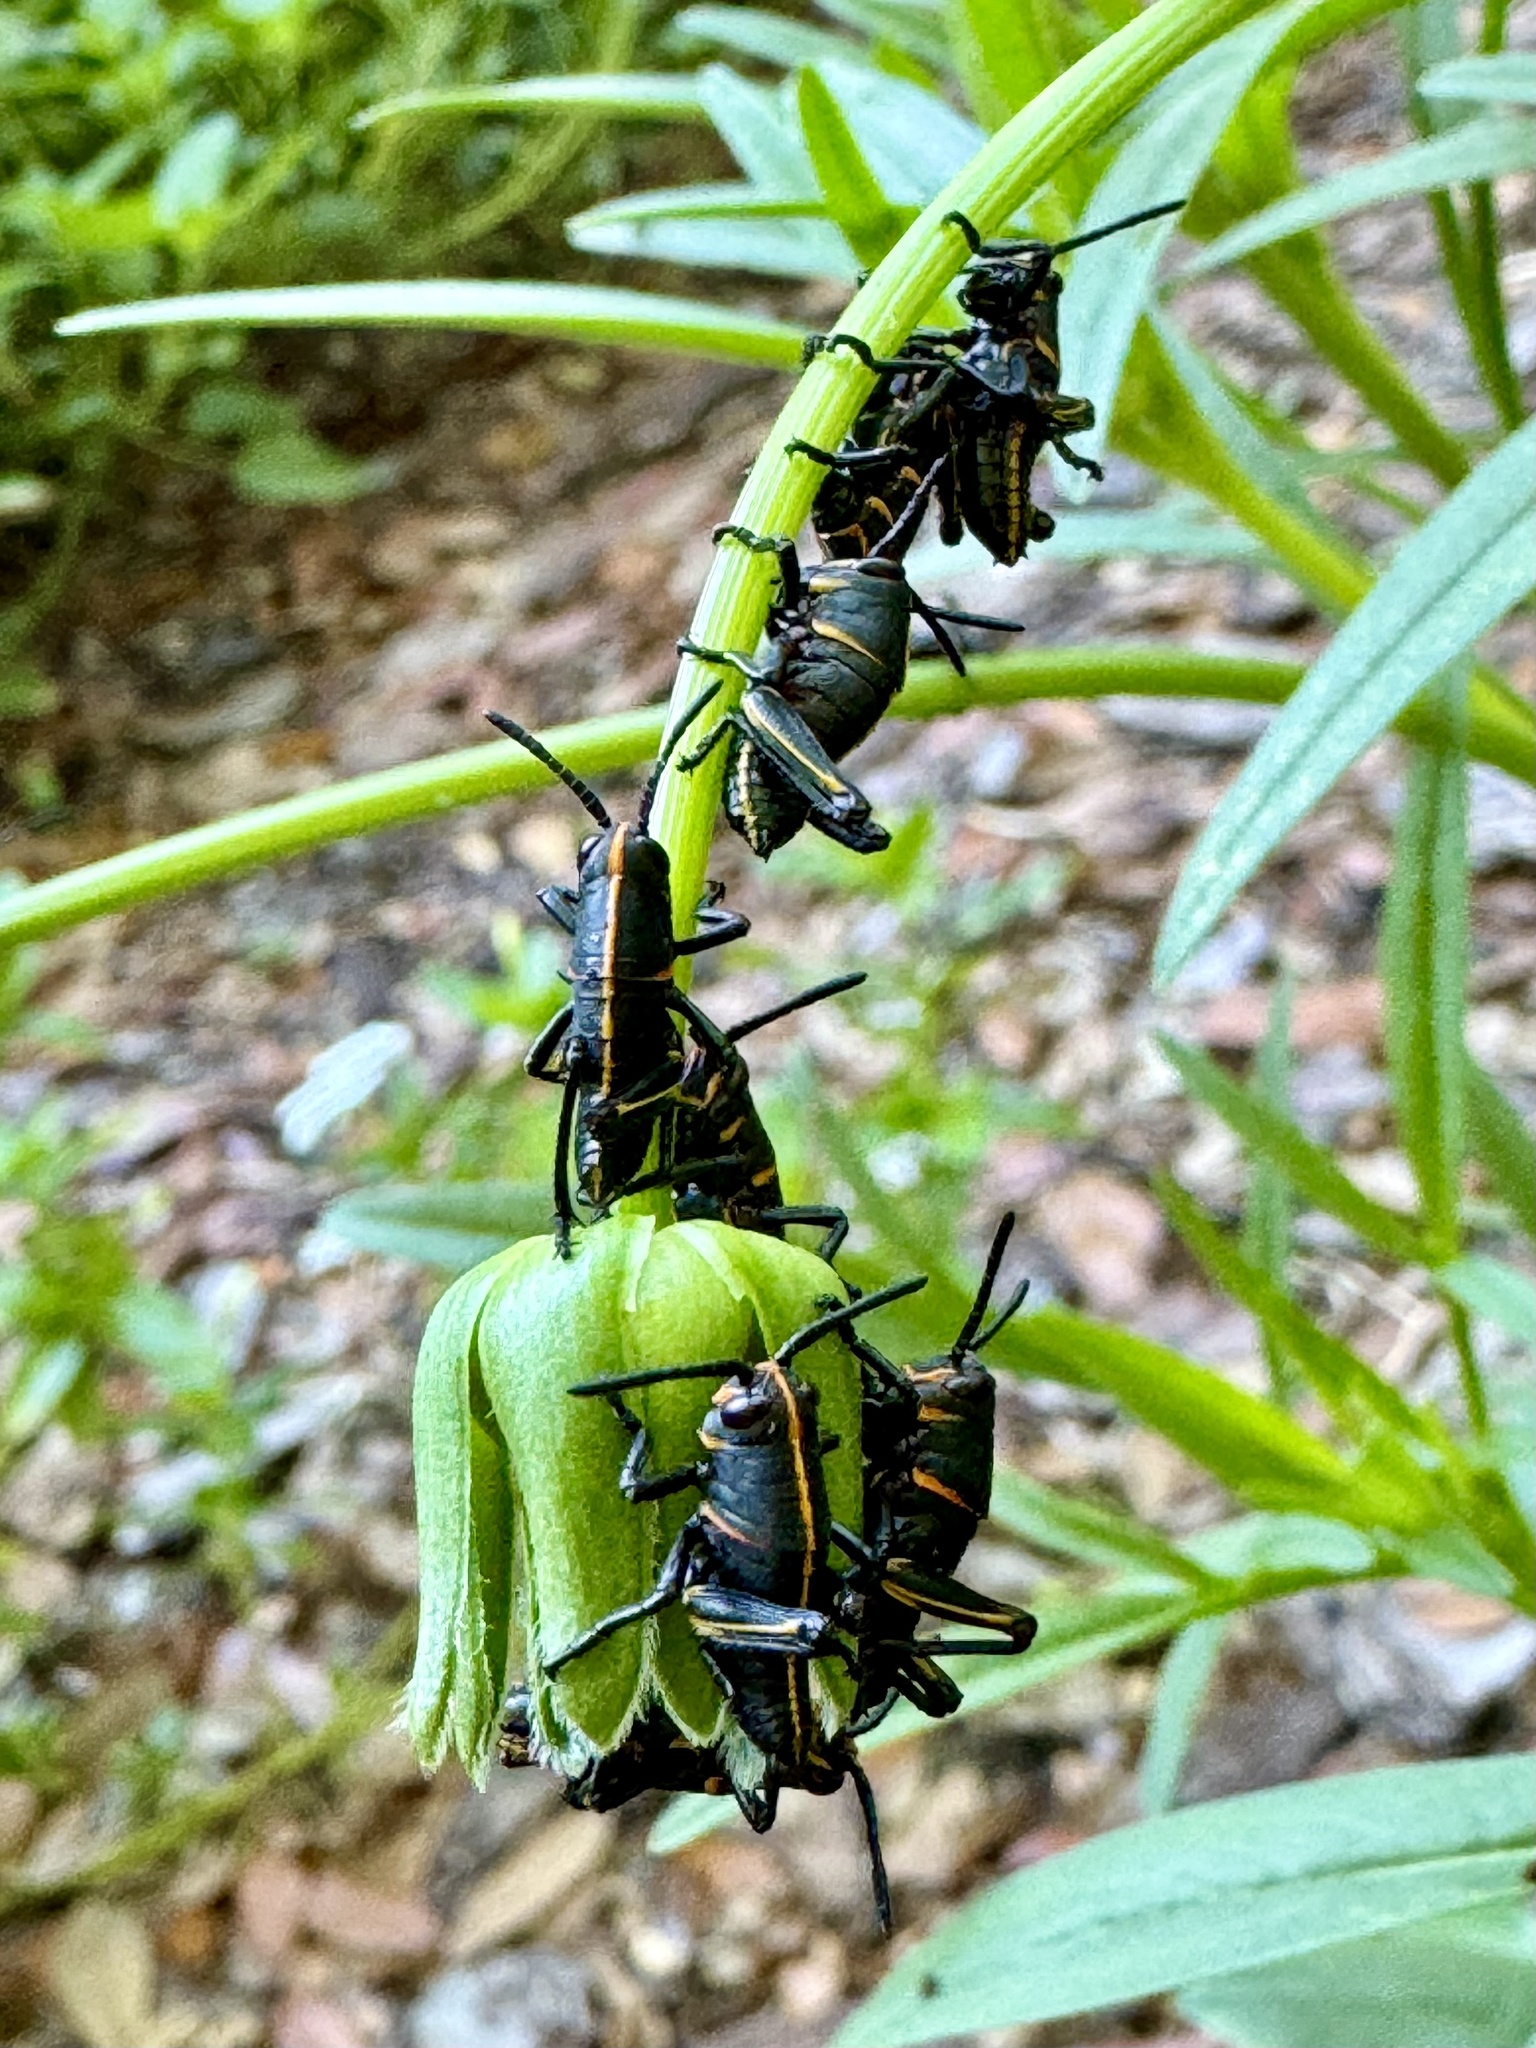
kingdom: Animalia
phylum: Arthropoda
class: Insecta
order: Orthoptera
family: Romaleidae
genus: Romalea
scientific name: Romalea microptera
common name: Eastern lubber grasshopper
